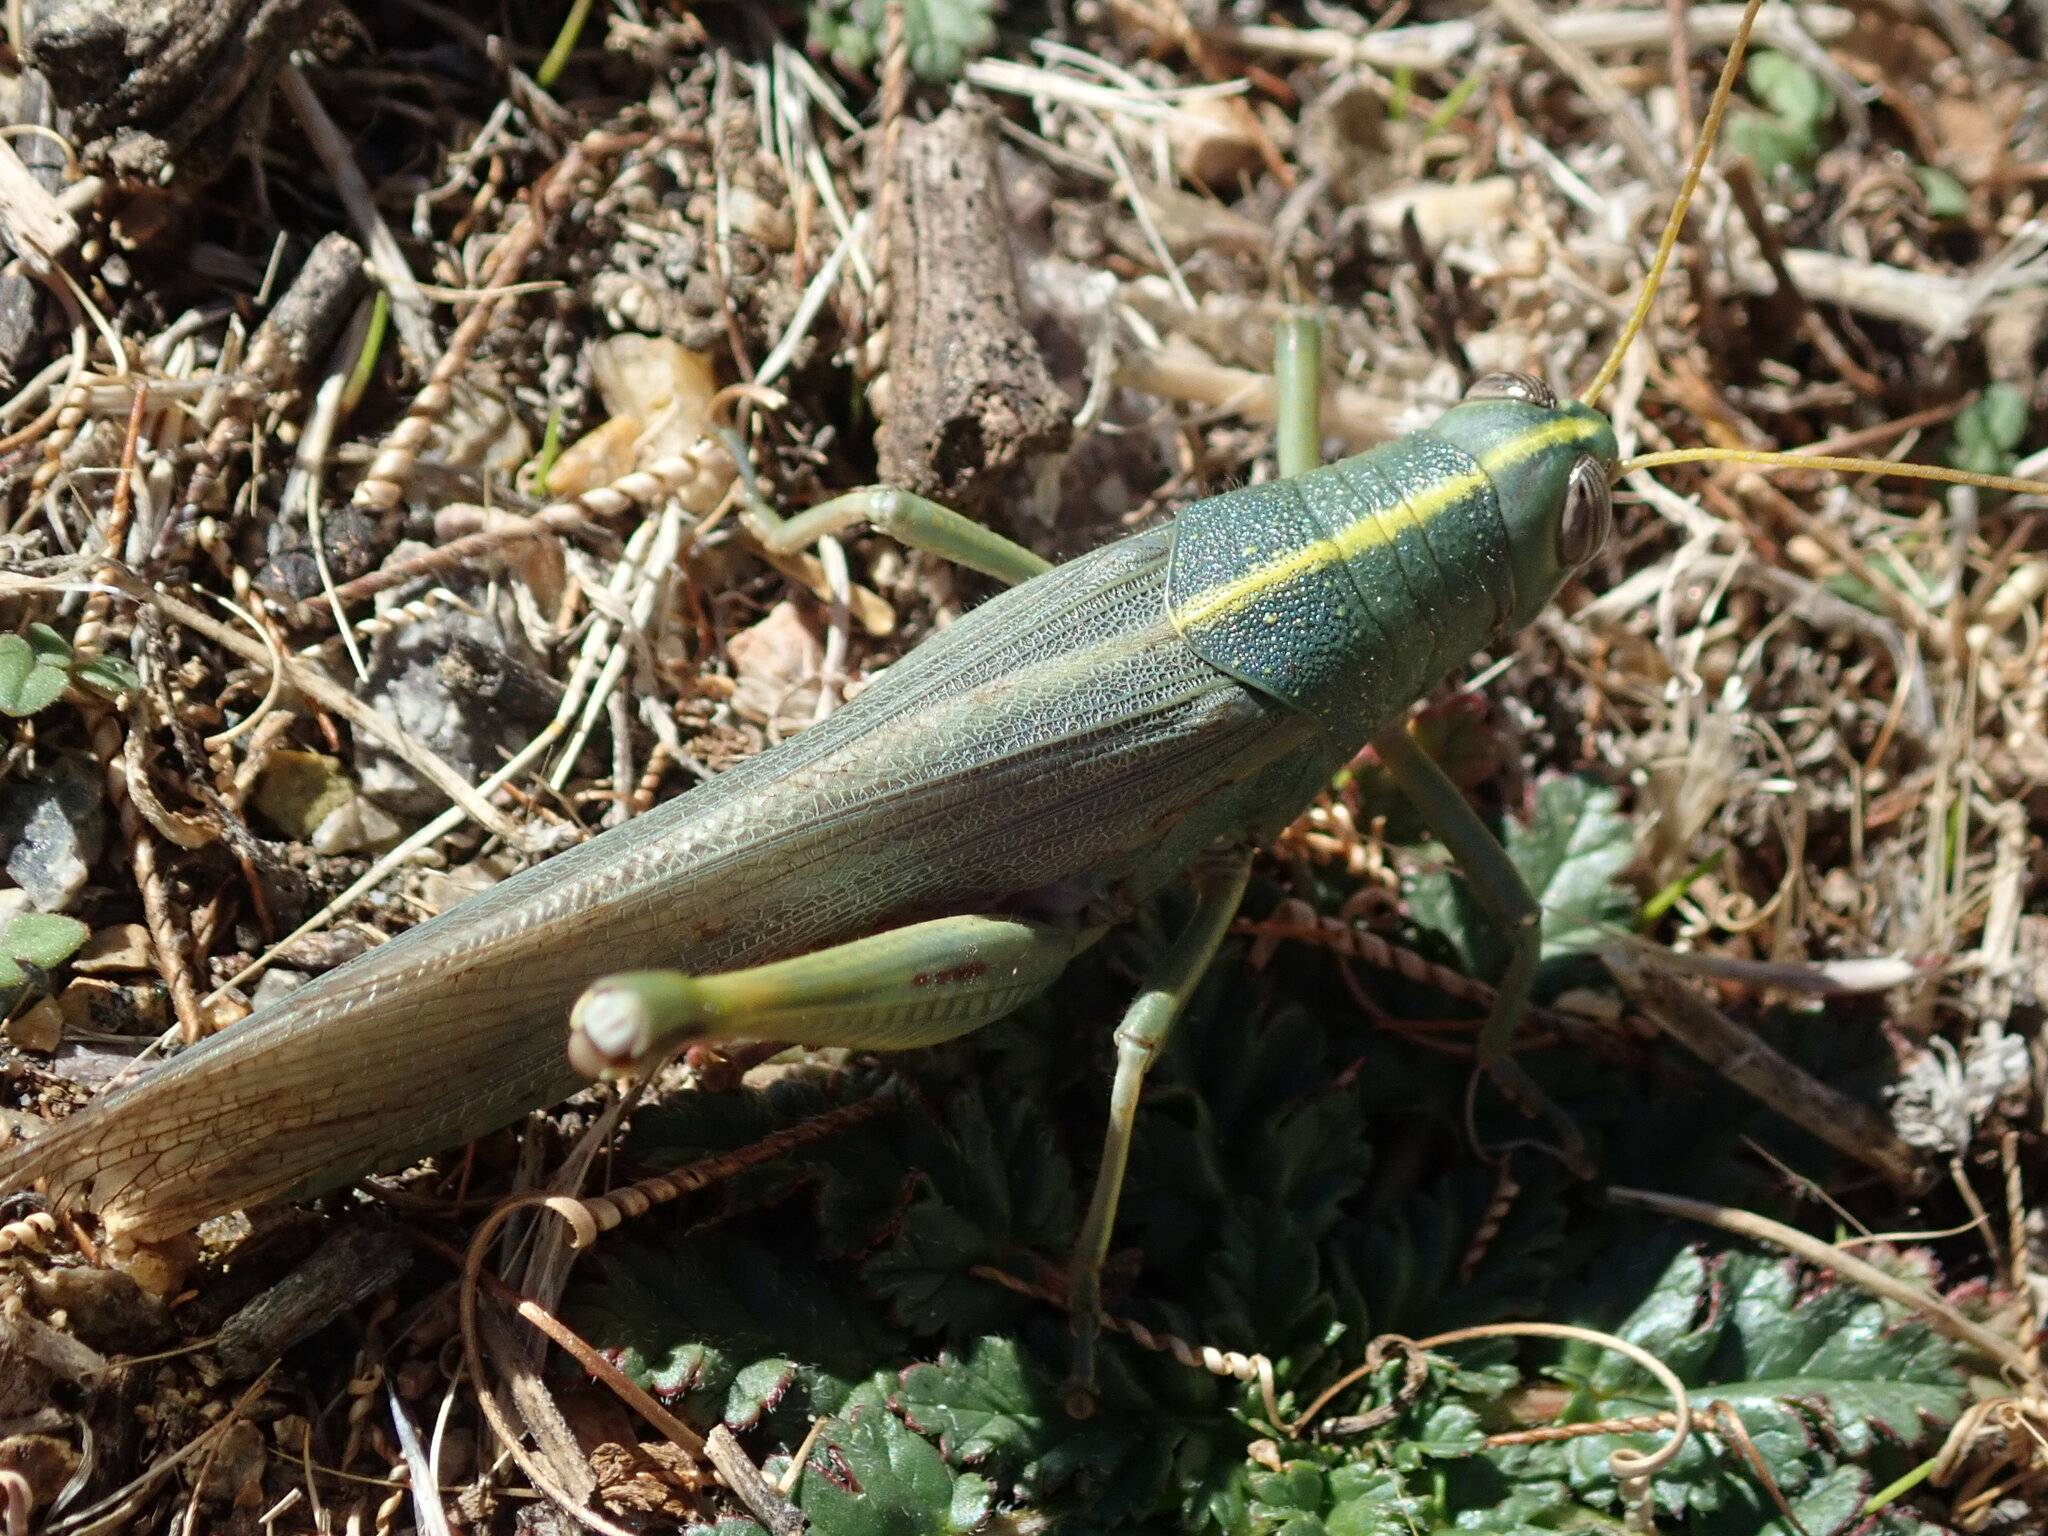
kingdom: Animalia
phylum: Arthropoda
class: Insecta
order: Orthoptera
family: Acrididae
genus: Schistocerca
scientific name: Schistocerca shoshone
